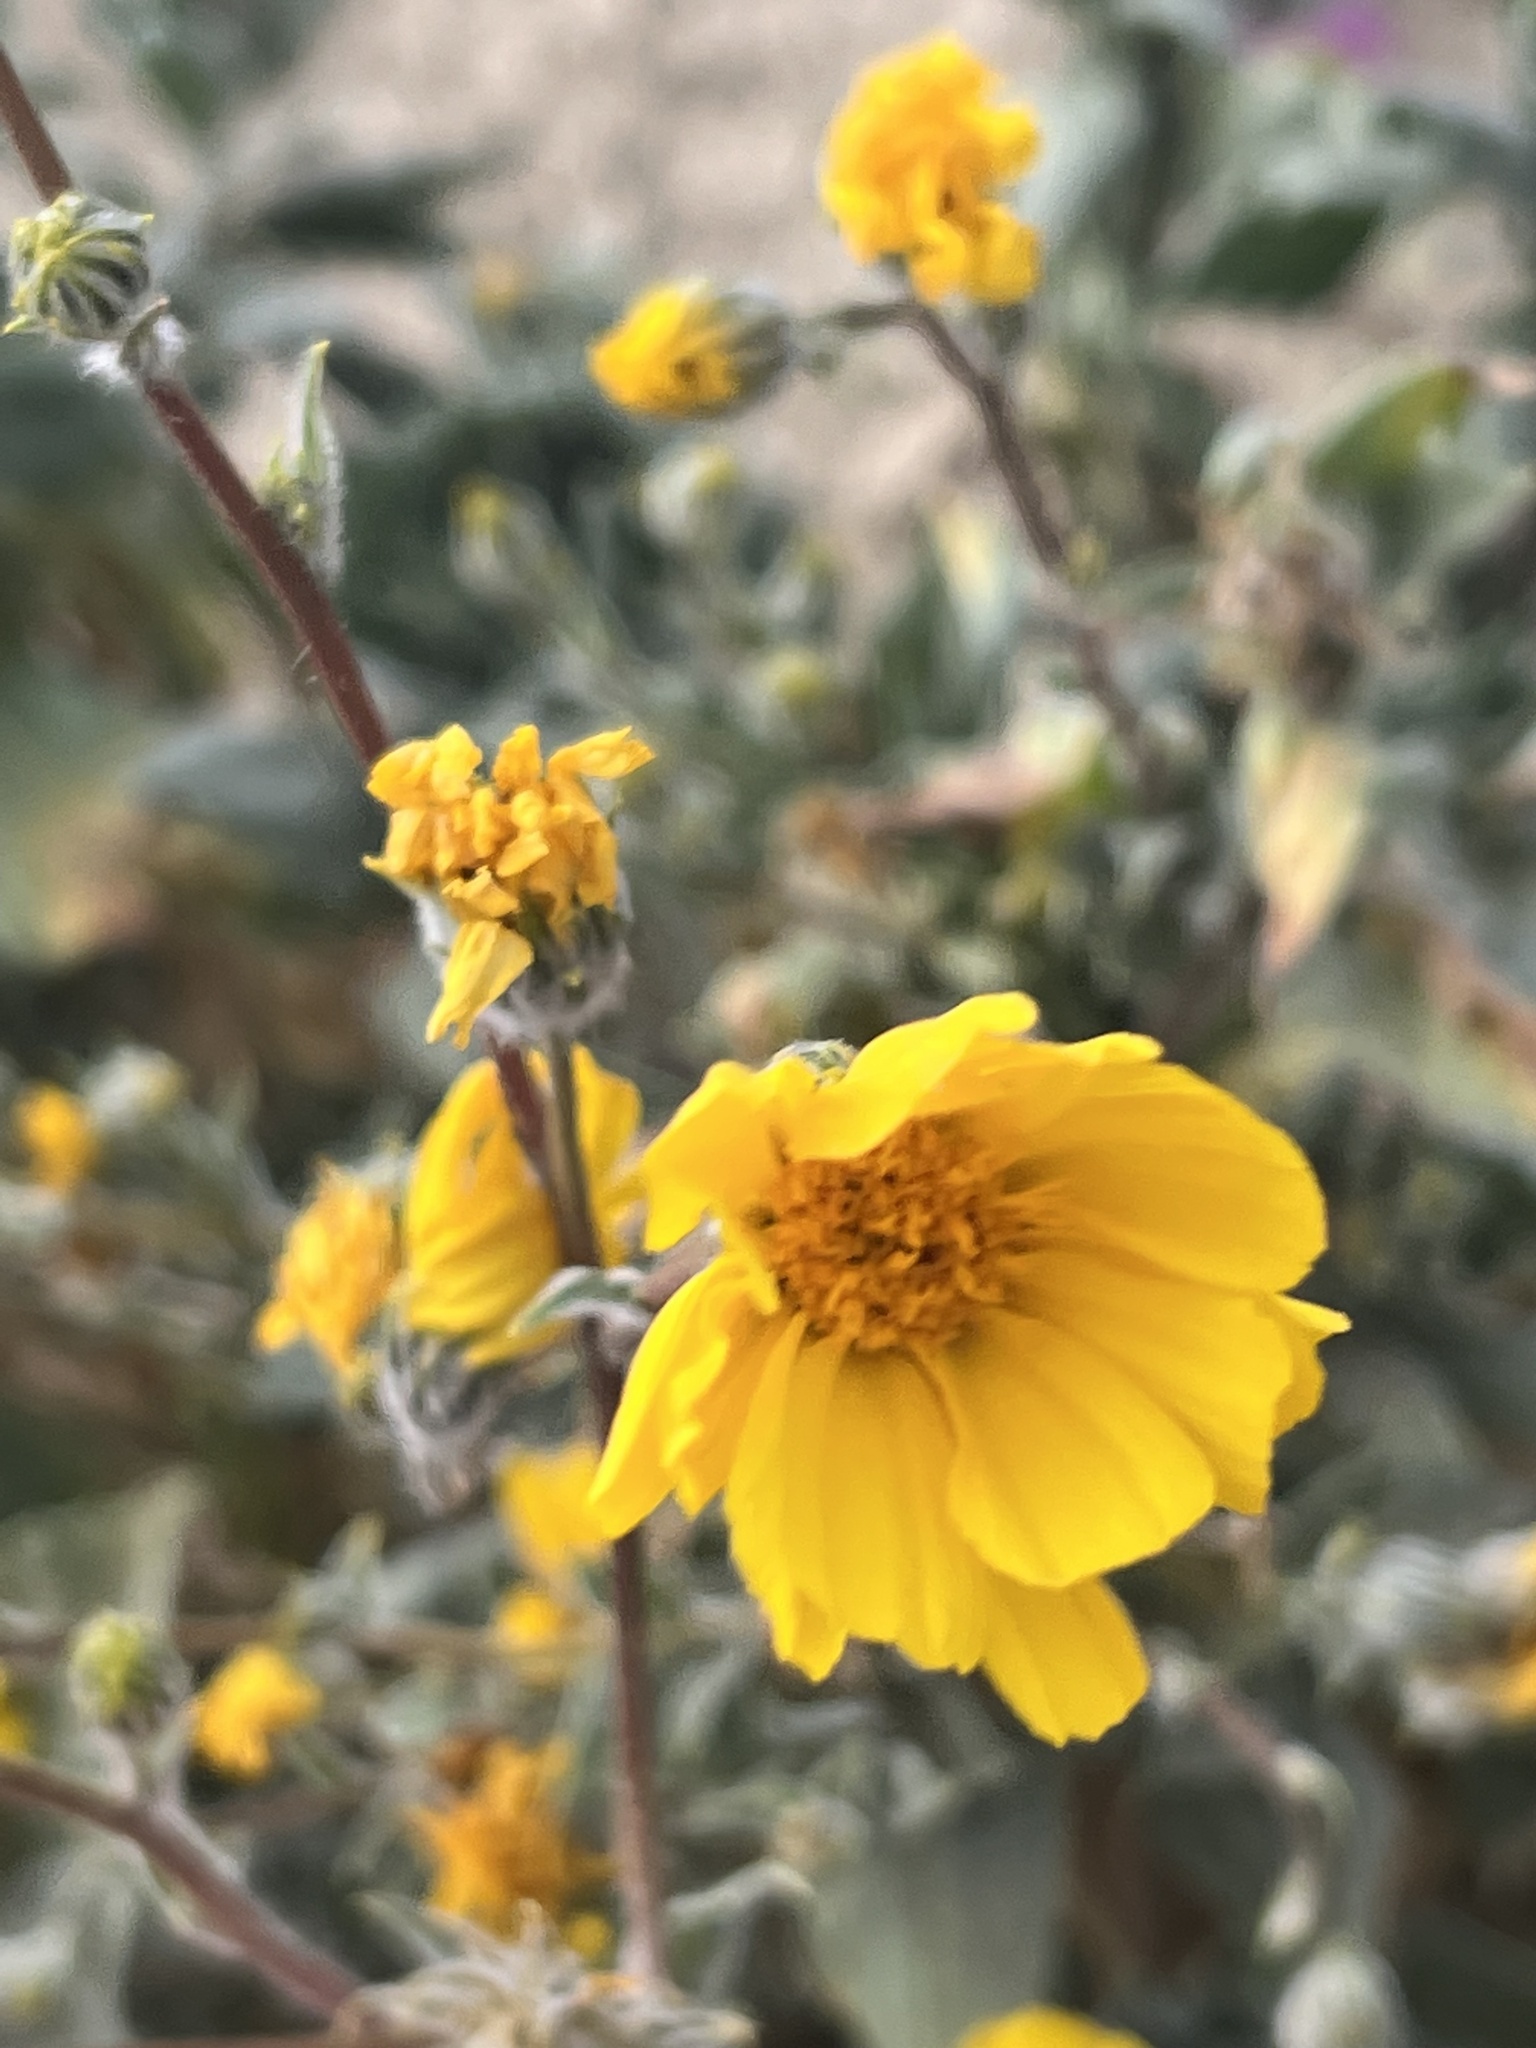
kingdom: Plantae
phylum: Tracheophyta
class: Magnoliopsida
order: Asterales
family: Asteraceae
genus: Geraea
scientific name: Geraea canescens
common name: Desert-gold
